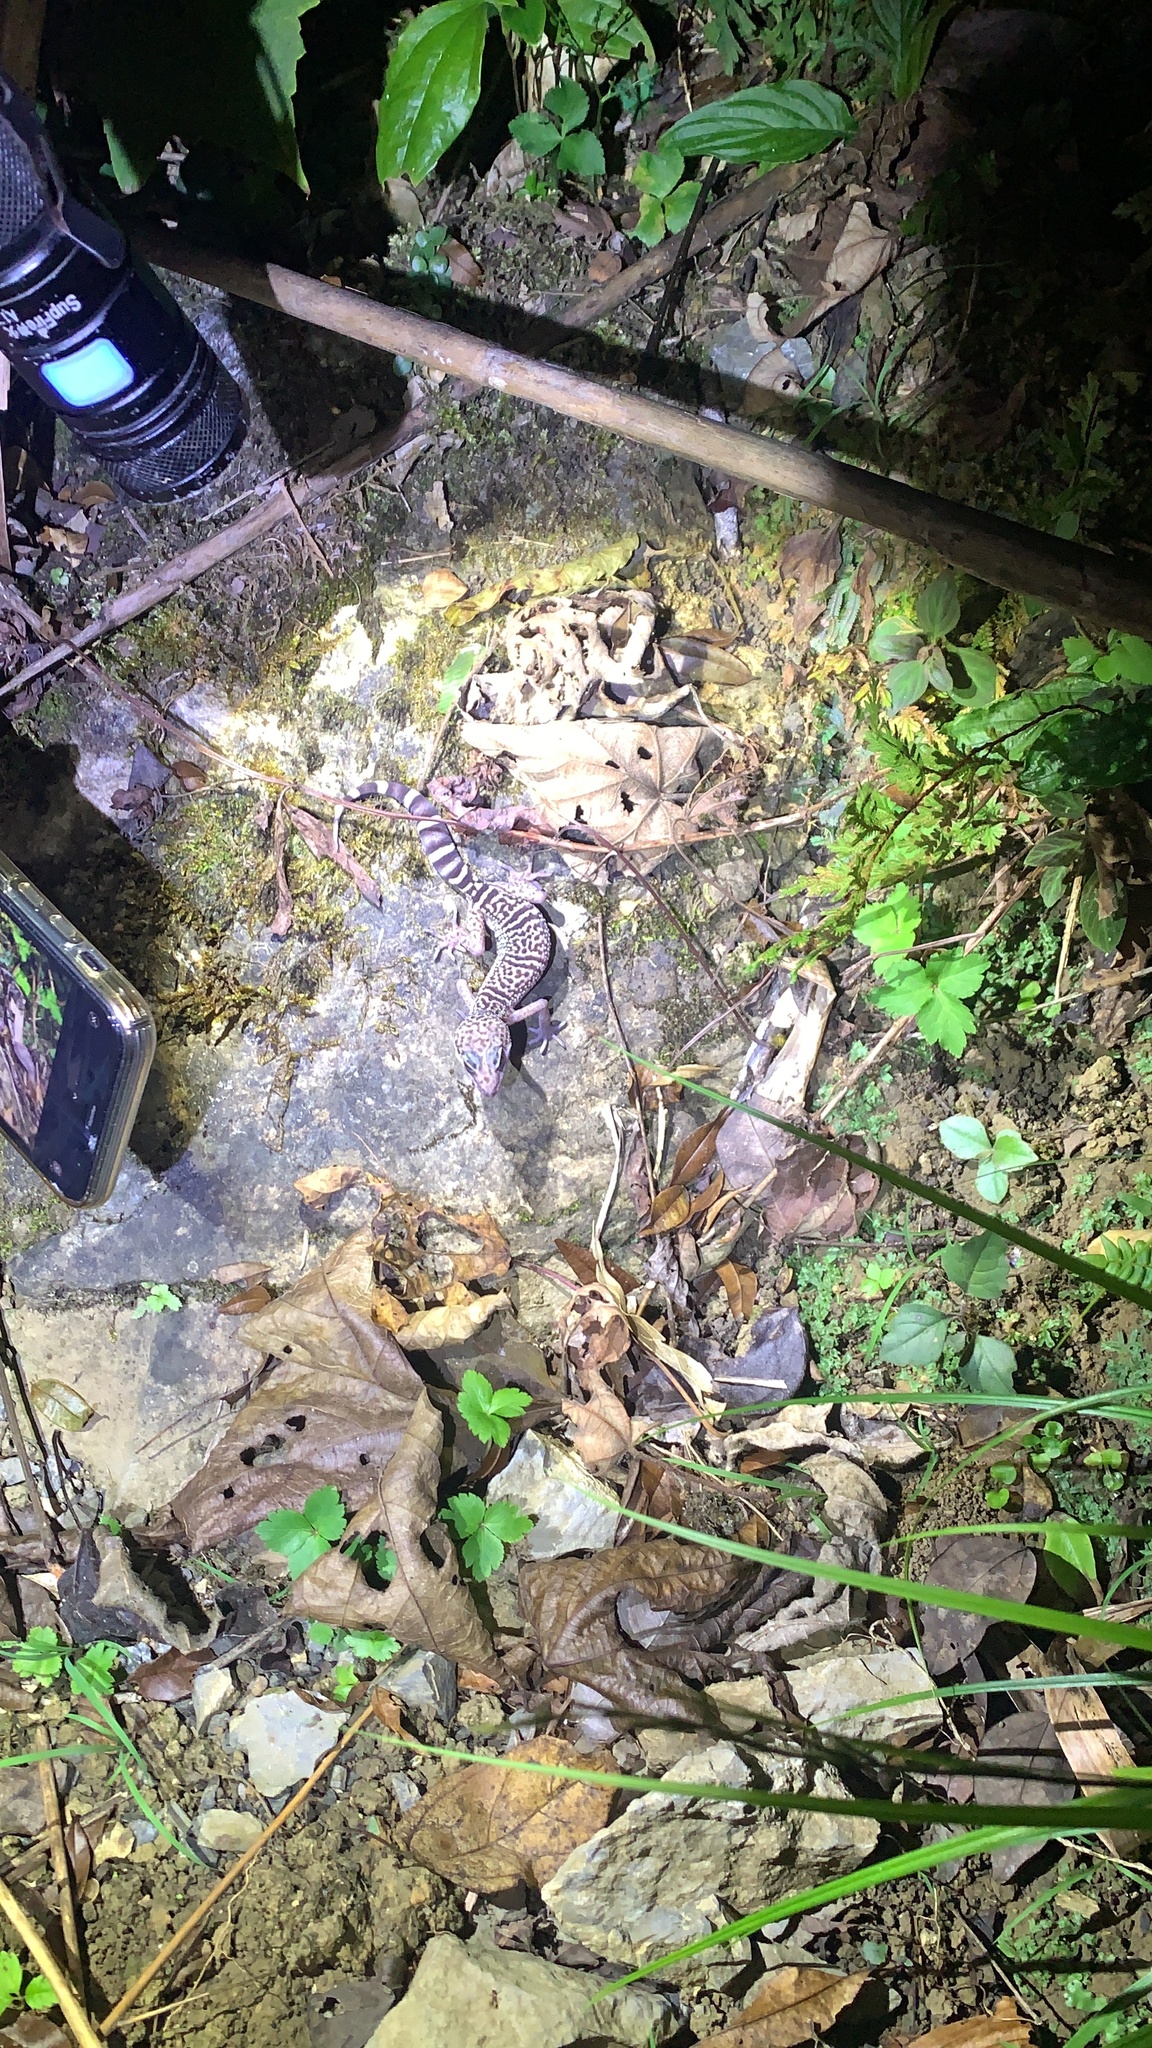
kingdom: Animalia
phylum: Chordata
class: Squamata
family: Eublepharidae
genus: Goniurosaurus
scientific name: Goniurosaurus varius
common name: Nanling leopard gecko]
